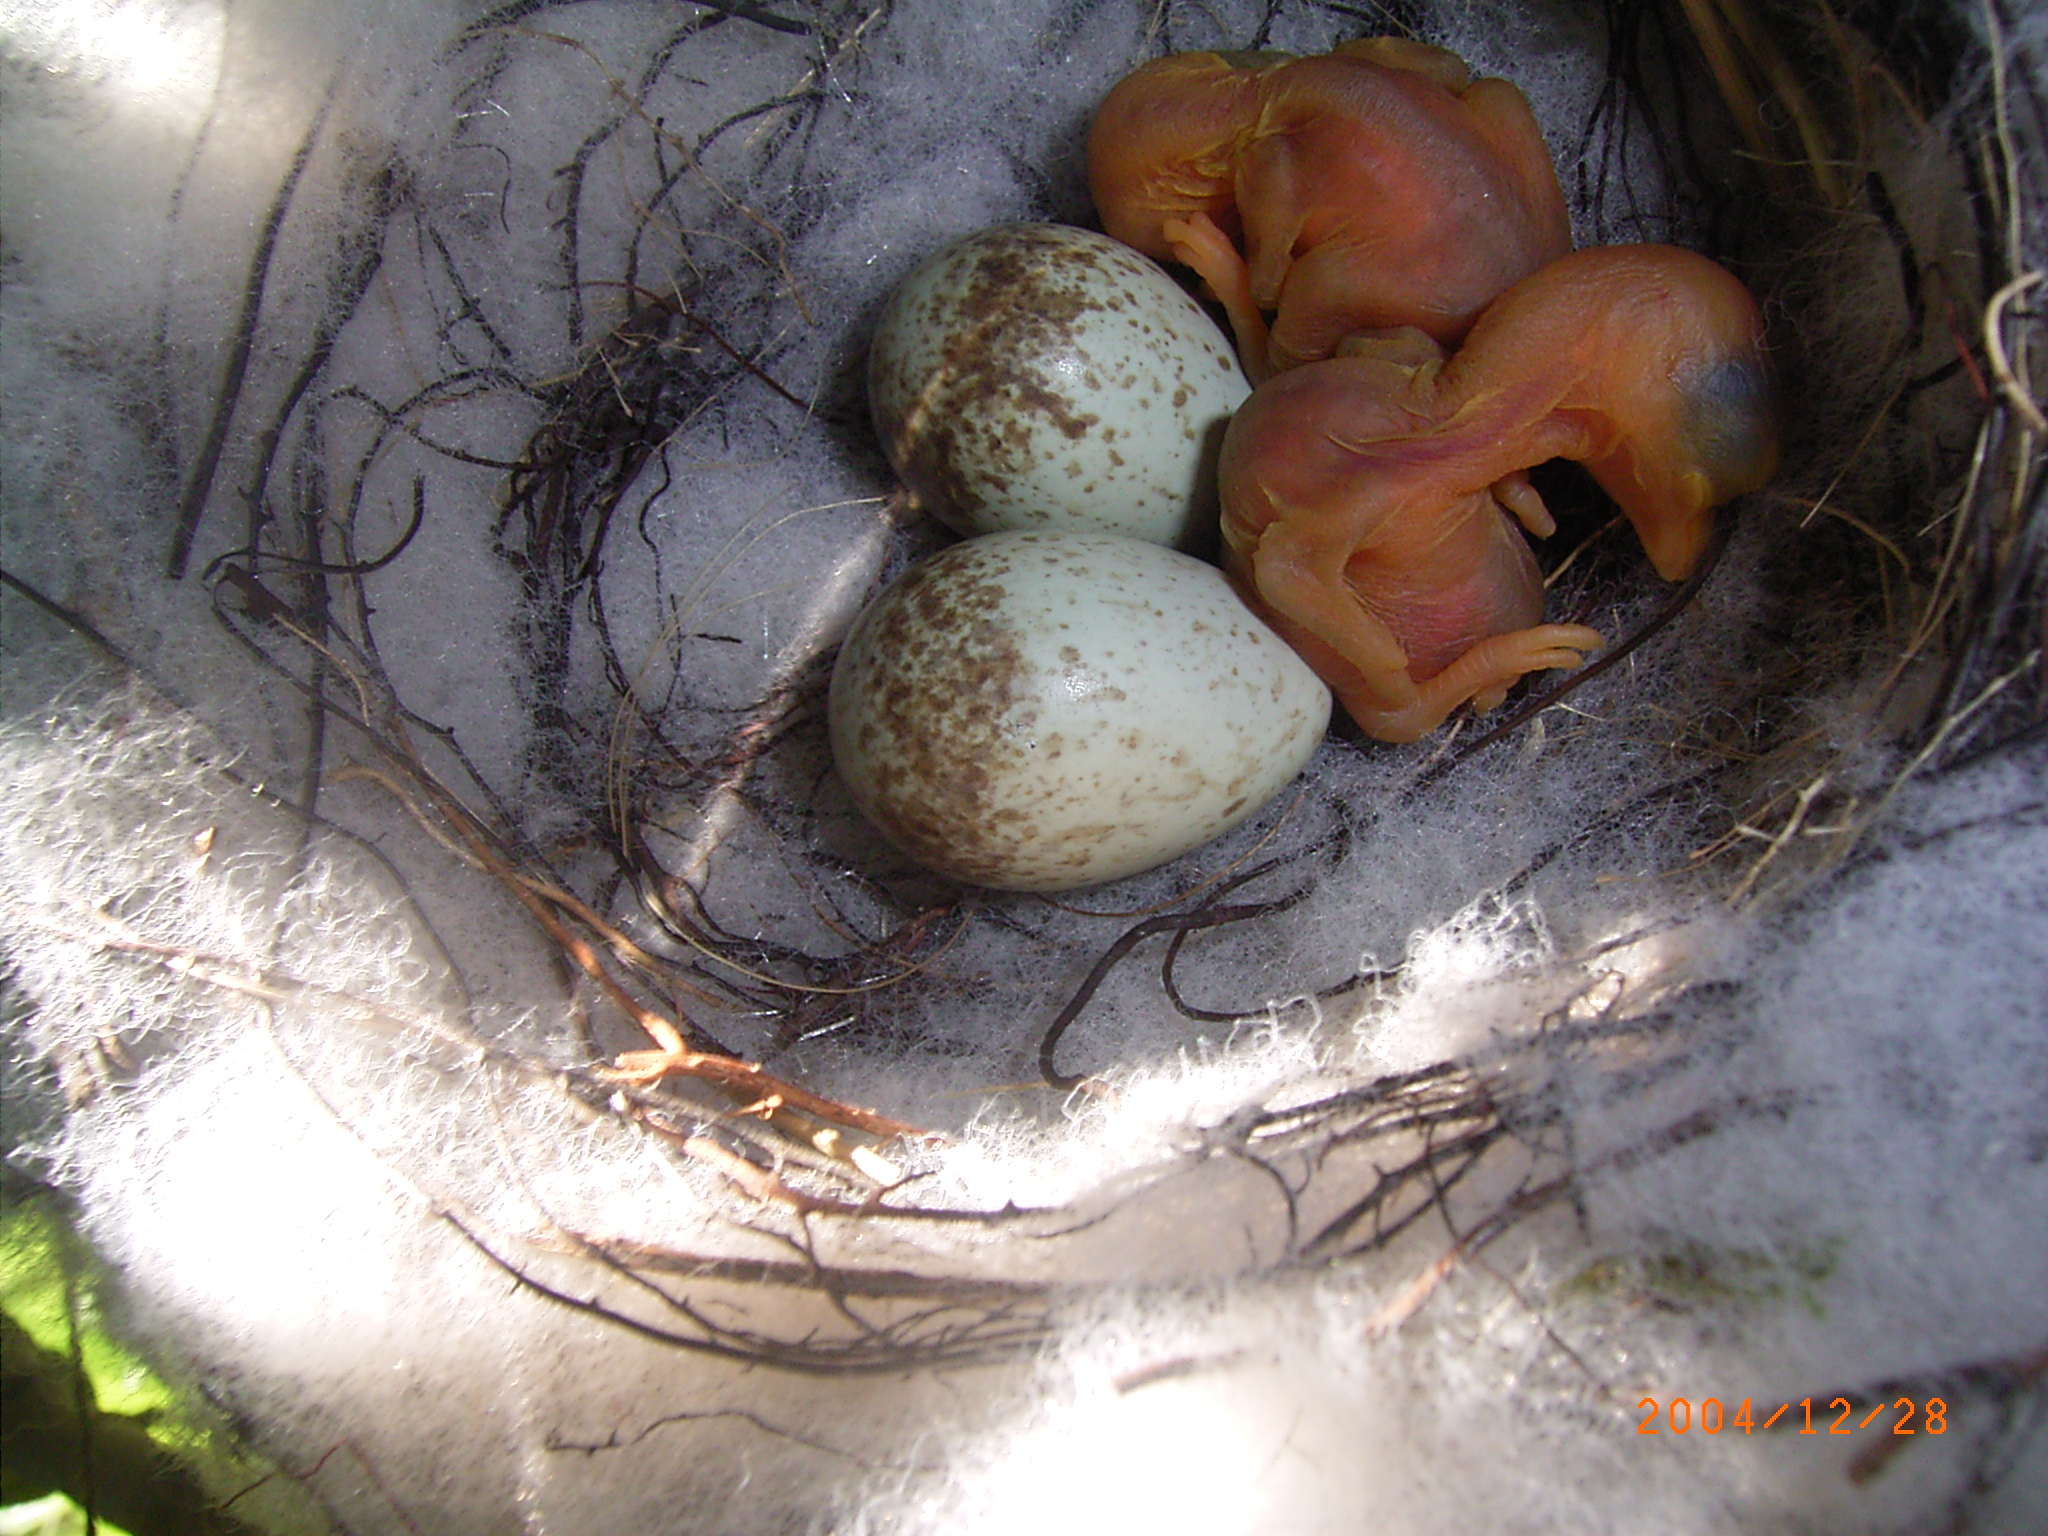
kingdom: Animalia
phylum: Chordata
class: Aves
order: Passeriformes
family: Laniidae
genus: Lanius
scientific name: Lanius collaris
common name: Southern fiscal
